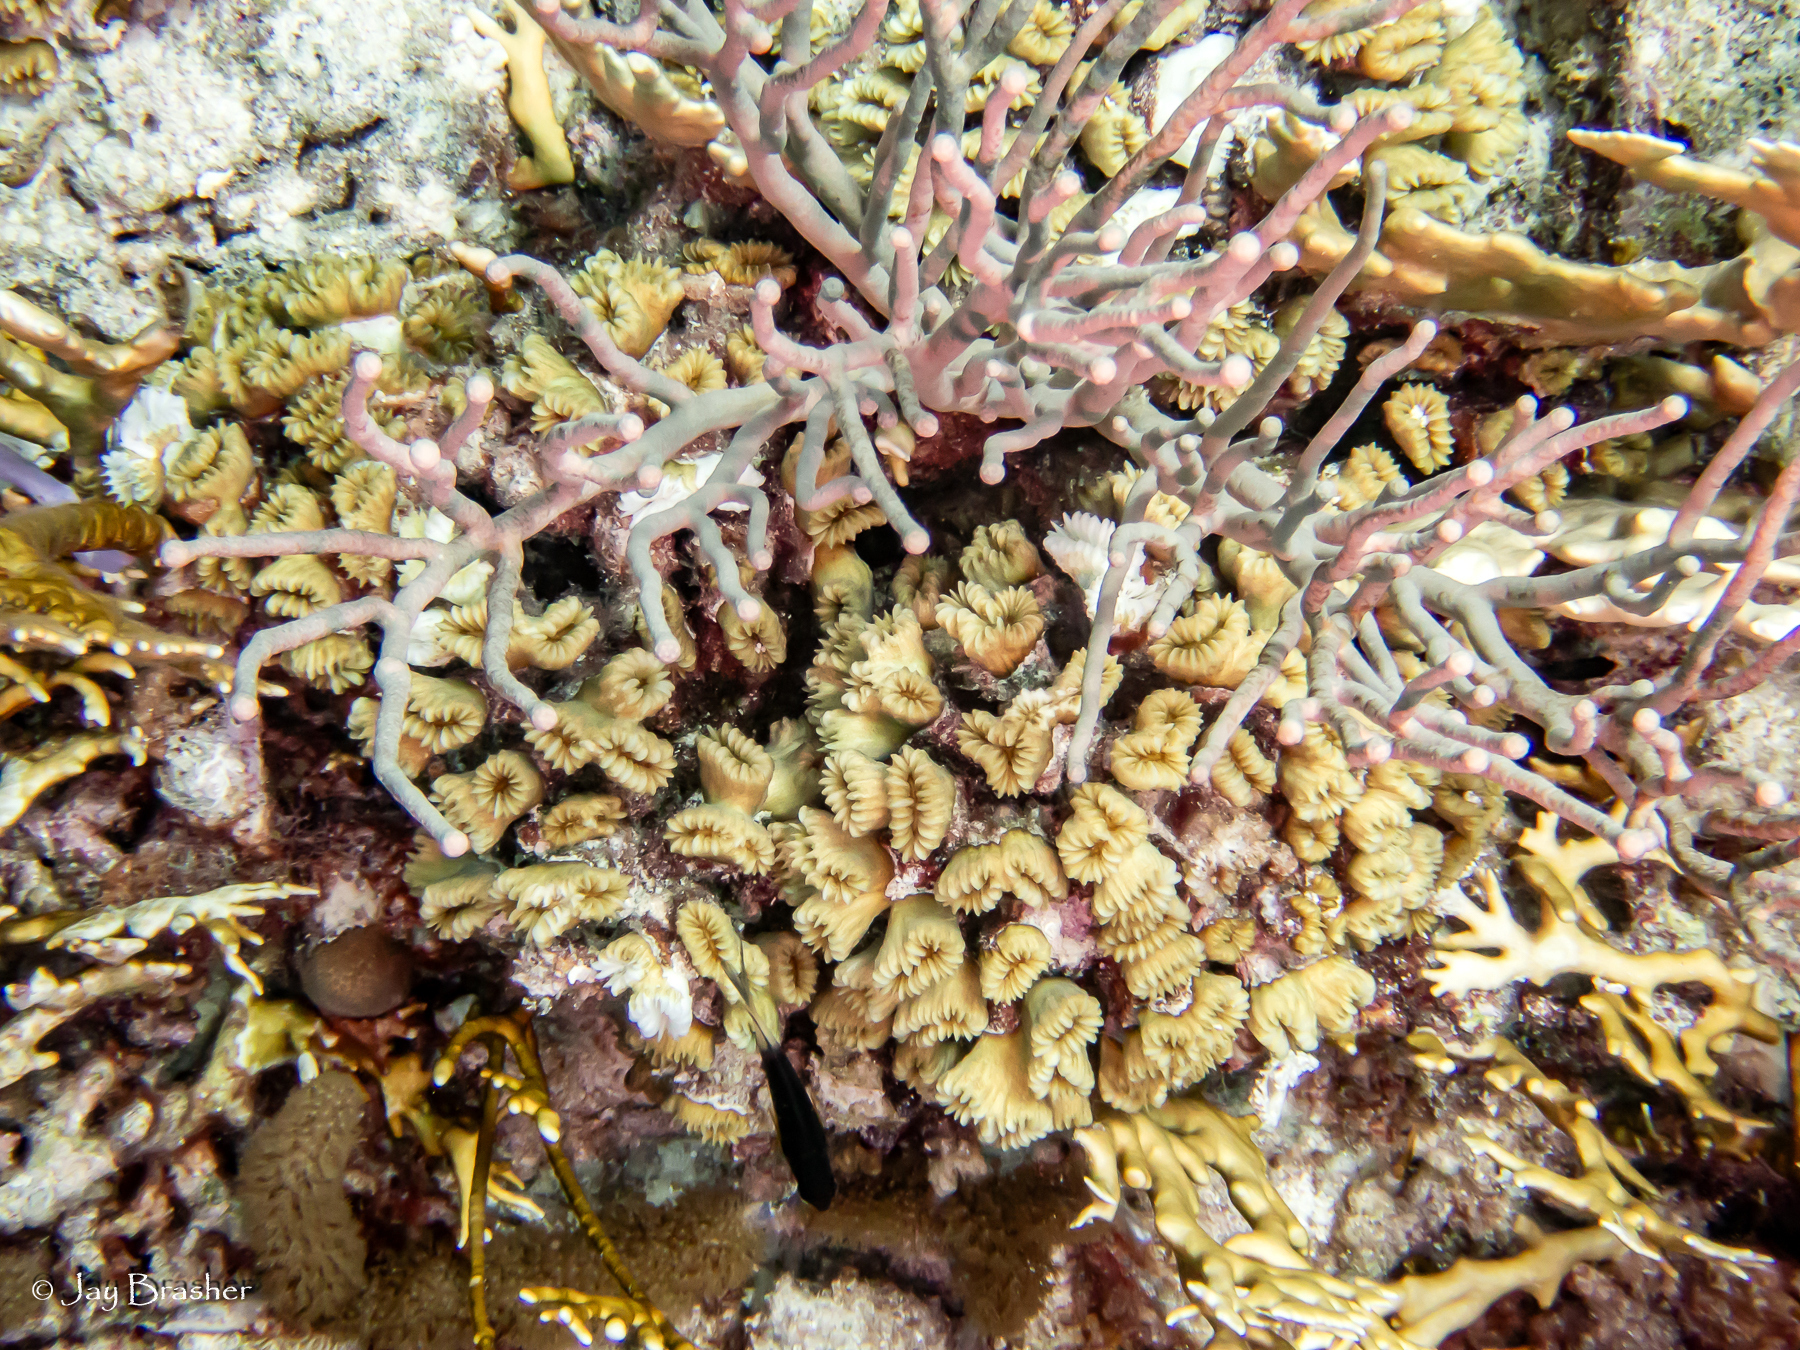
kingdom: Animalia
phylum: Cnidaria
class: Anthozoa
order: Scleractinia
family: Meandrinidae
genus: Eusmilia
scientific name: Eusmilia fastigiata
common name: Smooth flower coral
